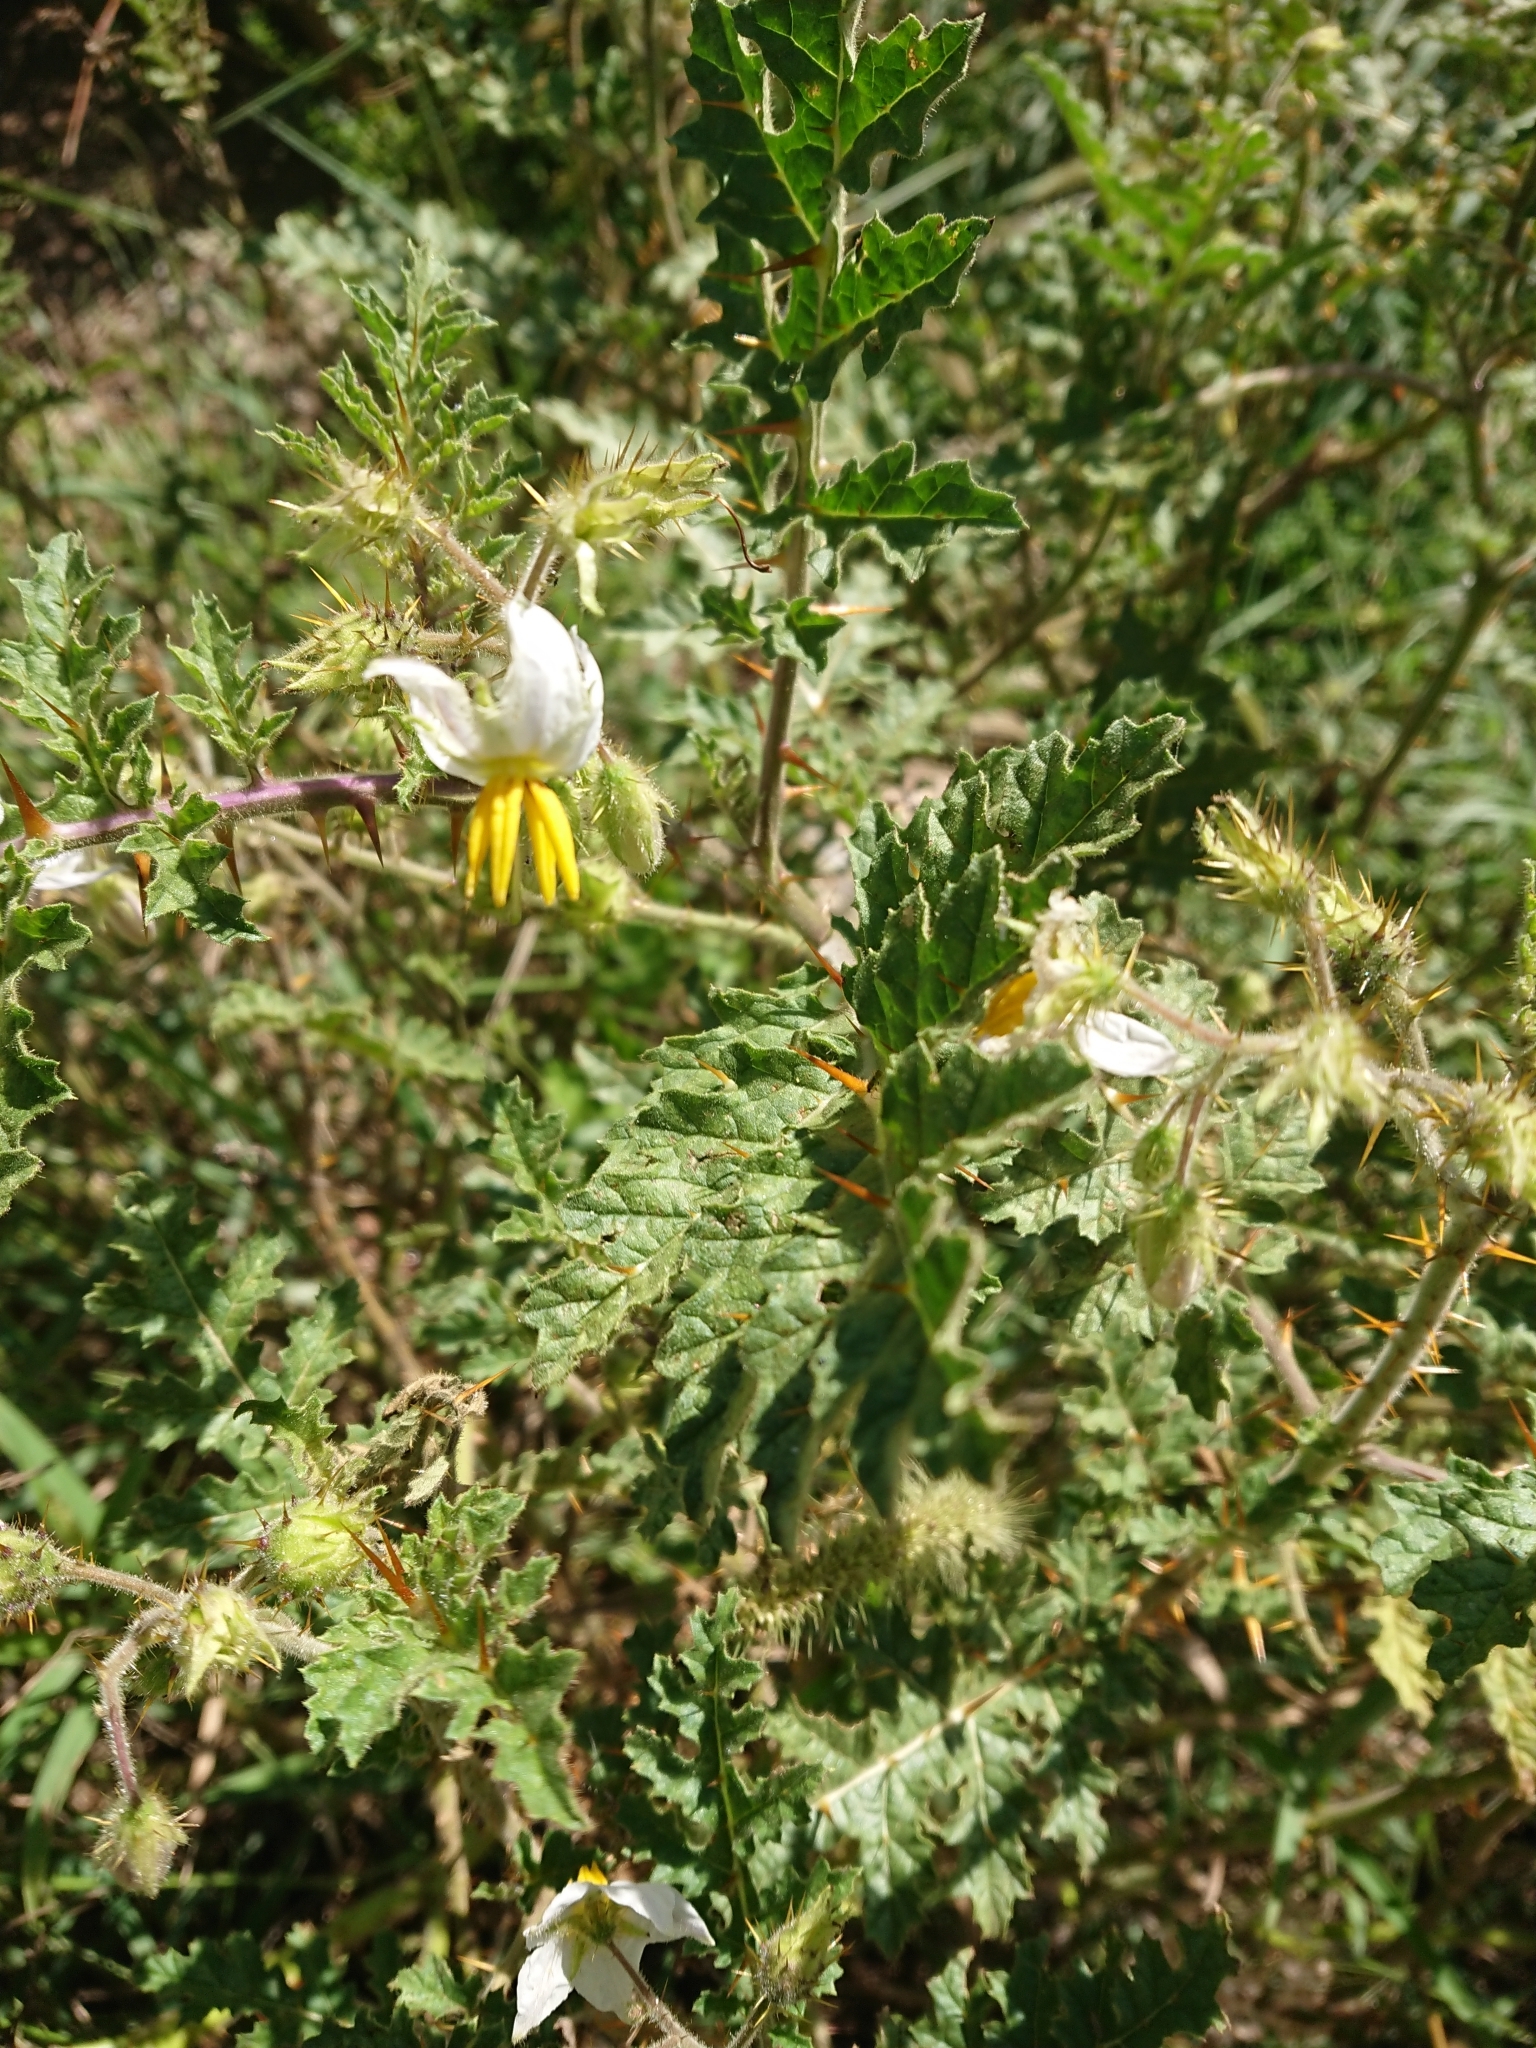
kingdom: Plantae
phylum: Tracheophyta
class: Magnoliopsida
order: Solanales
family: Solanaceae
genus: Solanum
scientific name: Solanum sisymbriifolium
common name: Red buffalo-bur
